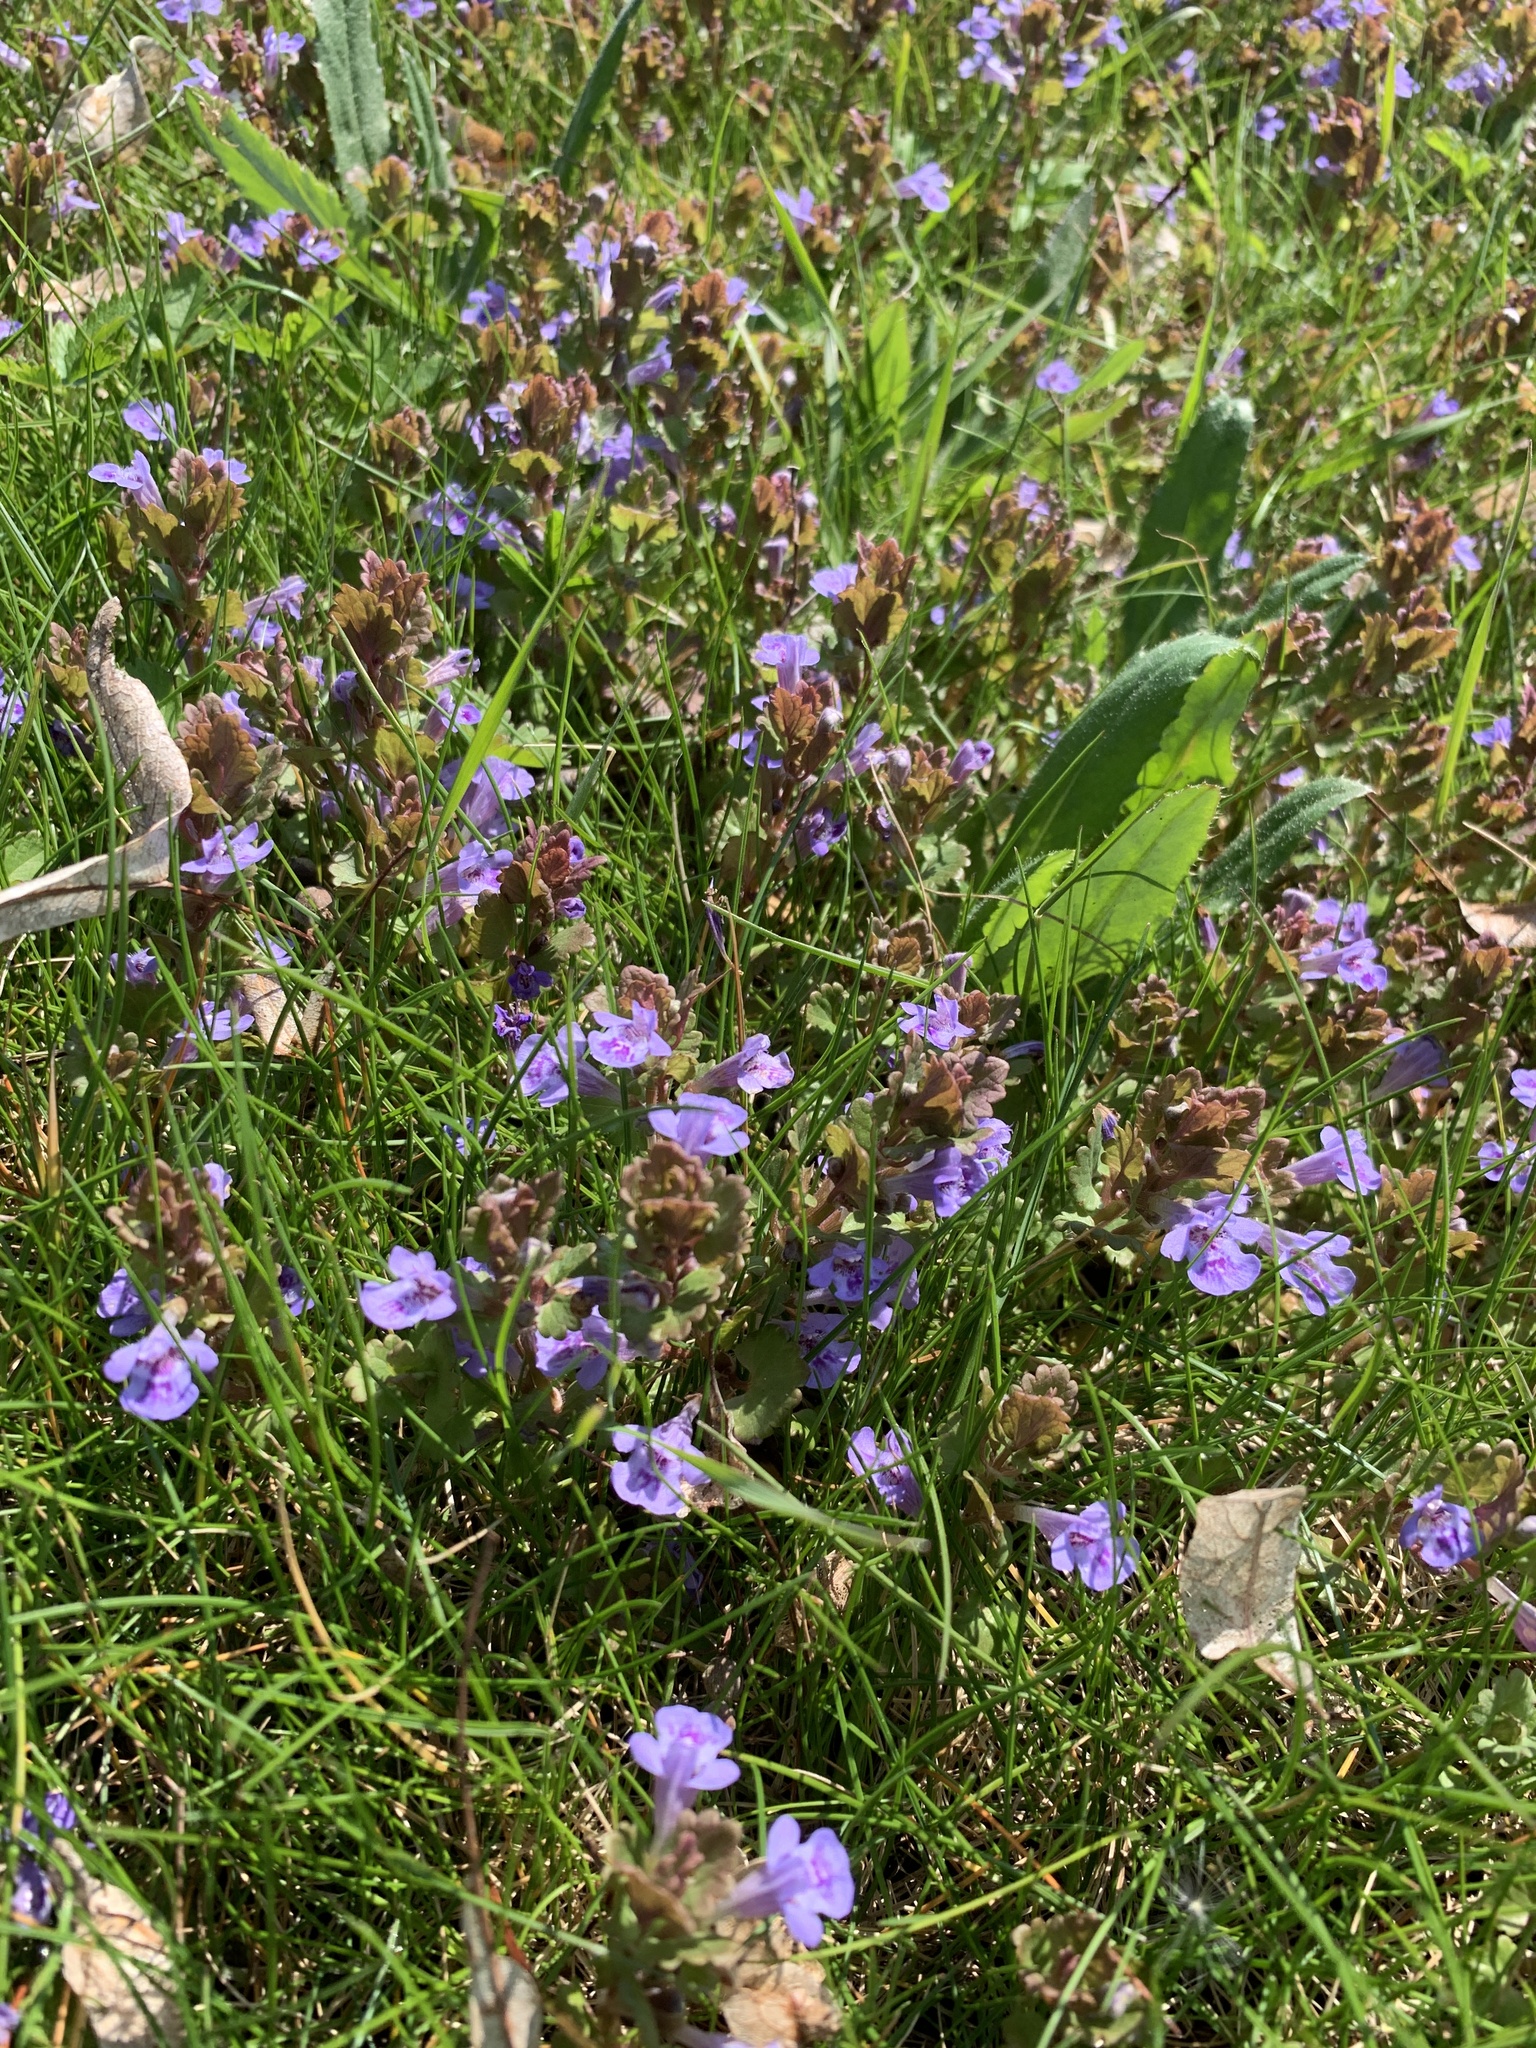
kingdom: Plantae
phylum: Tracheophyta
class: Magnoliopsida
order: Lamiales
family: Lamiaceae
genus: Glechoma
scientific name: Glechoma hederacea
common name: Ground ivy
